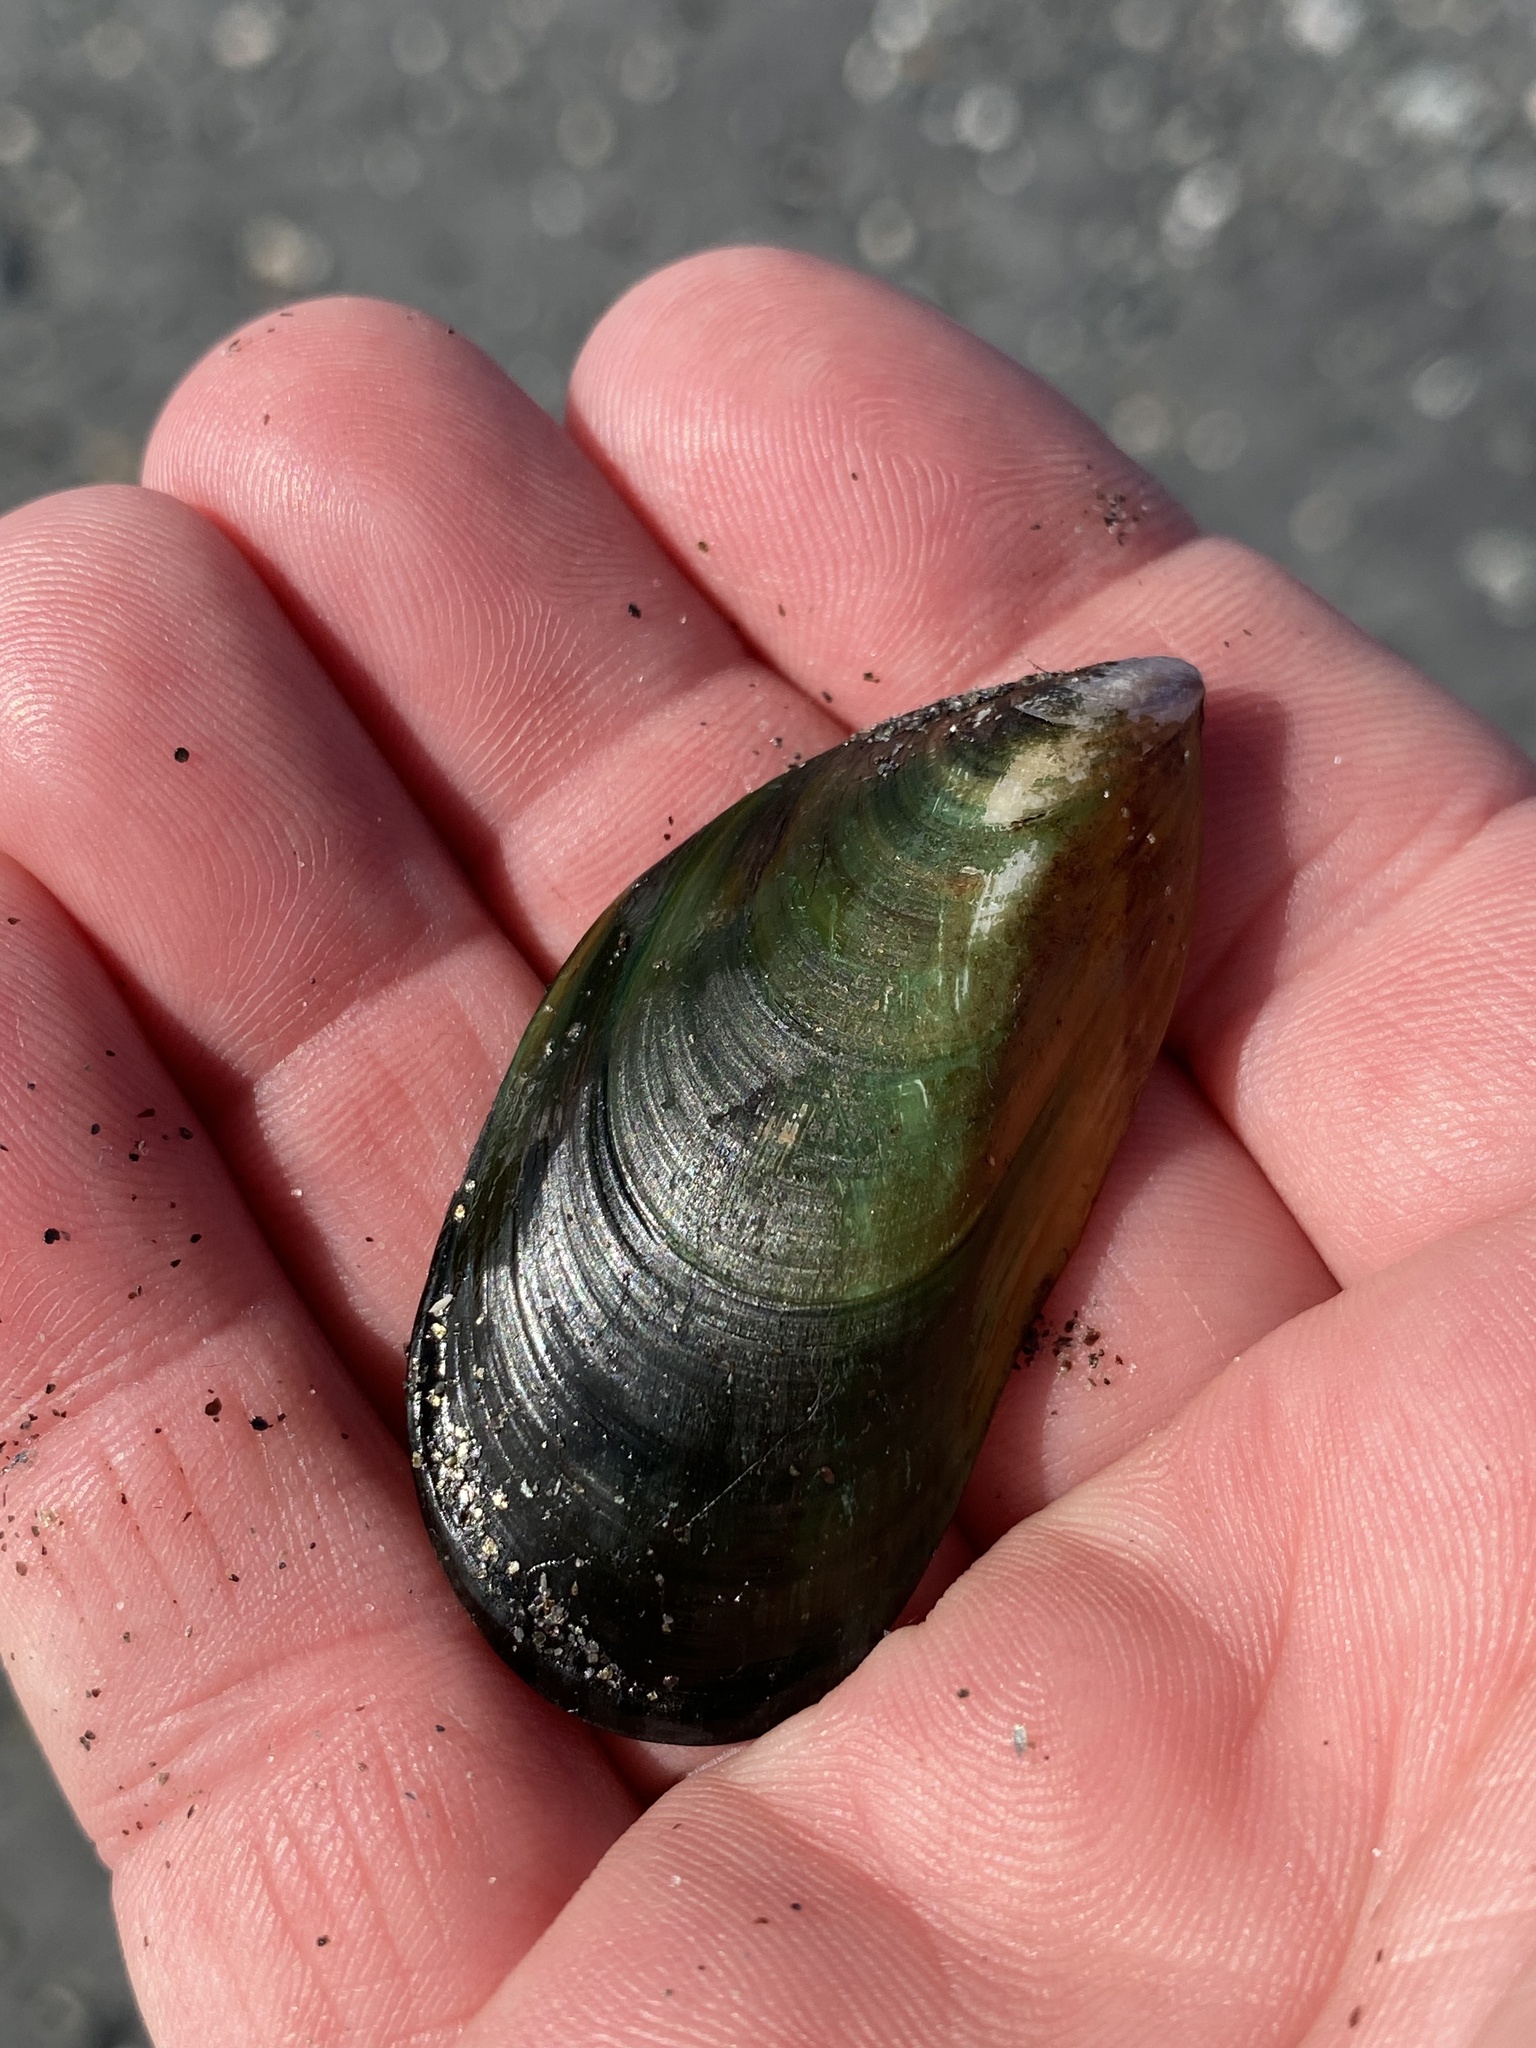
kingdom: Animalia
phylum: Mollusca
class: Bivalvia
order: Mytilida
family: Mytilidae
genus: Perna
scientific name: Perna canaliculus
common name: New zealand greenshelltm
